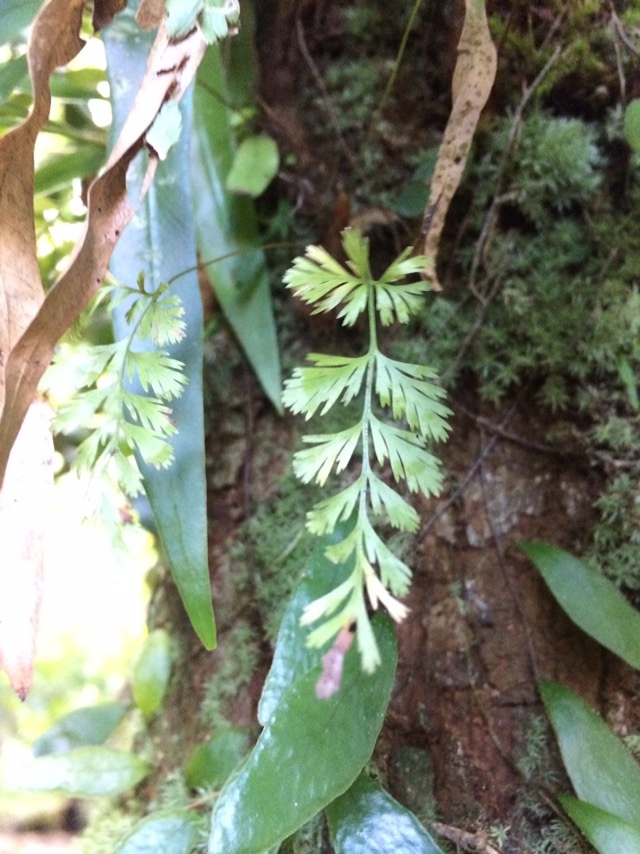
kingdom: Plantae
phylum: Tracheophyta
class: Polypodiopsida
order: Polypodiales
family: Davalliaceae
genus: Davallia
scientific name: Davallia solida
